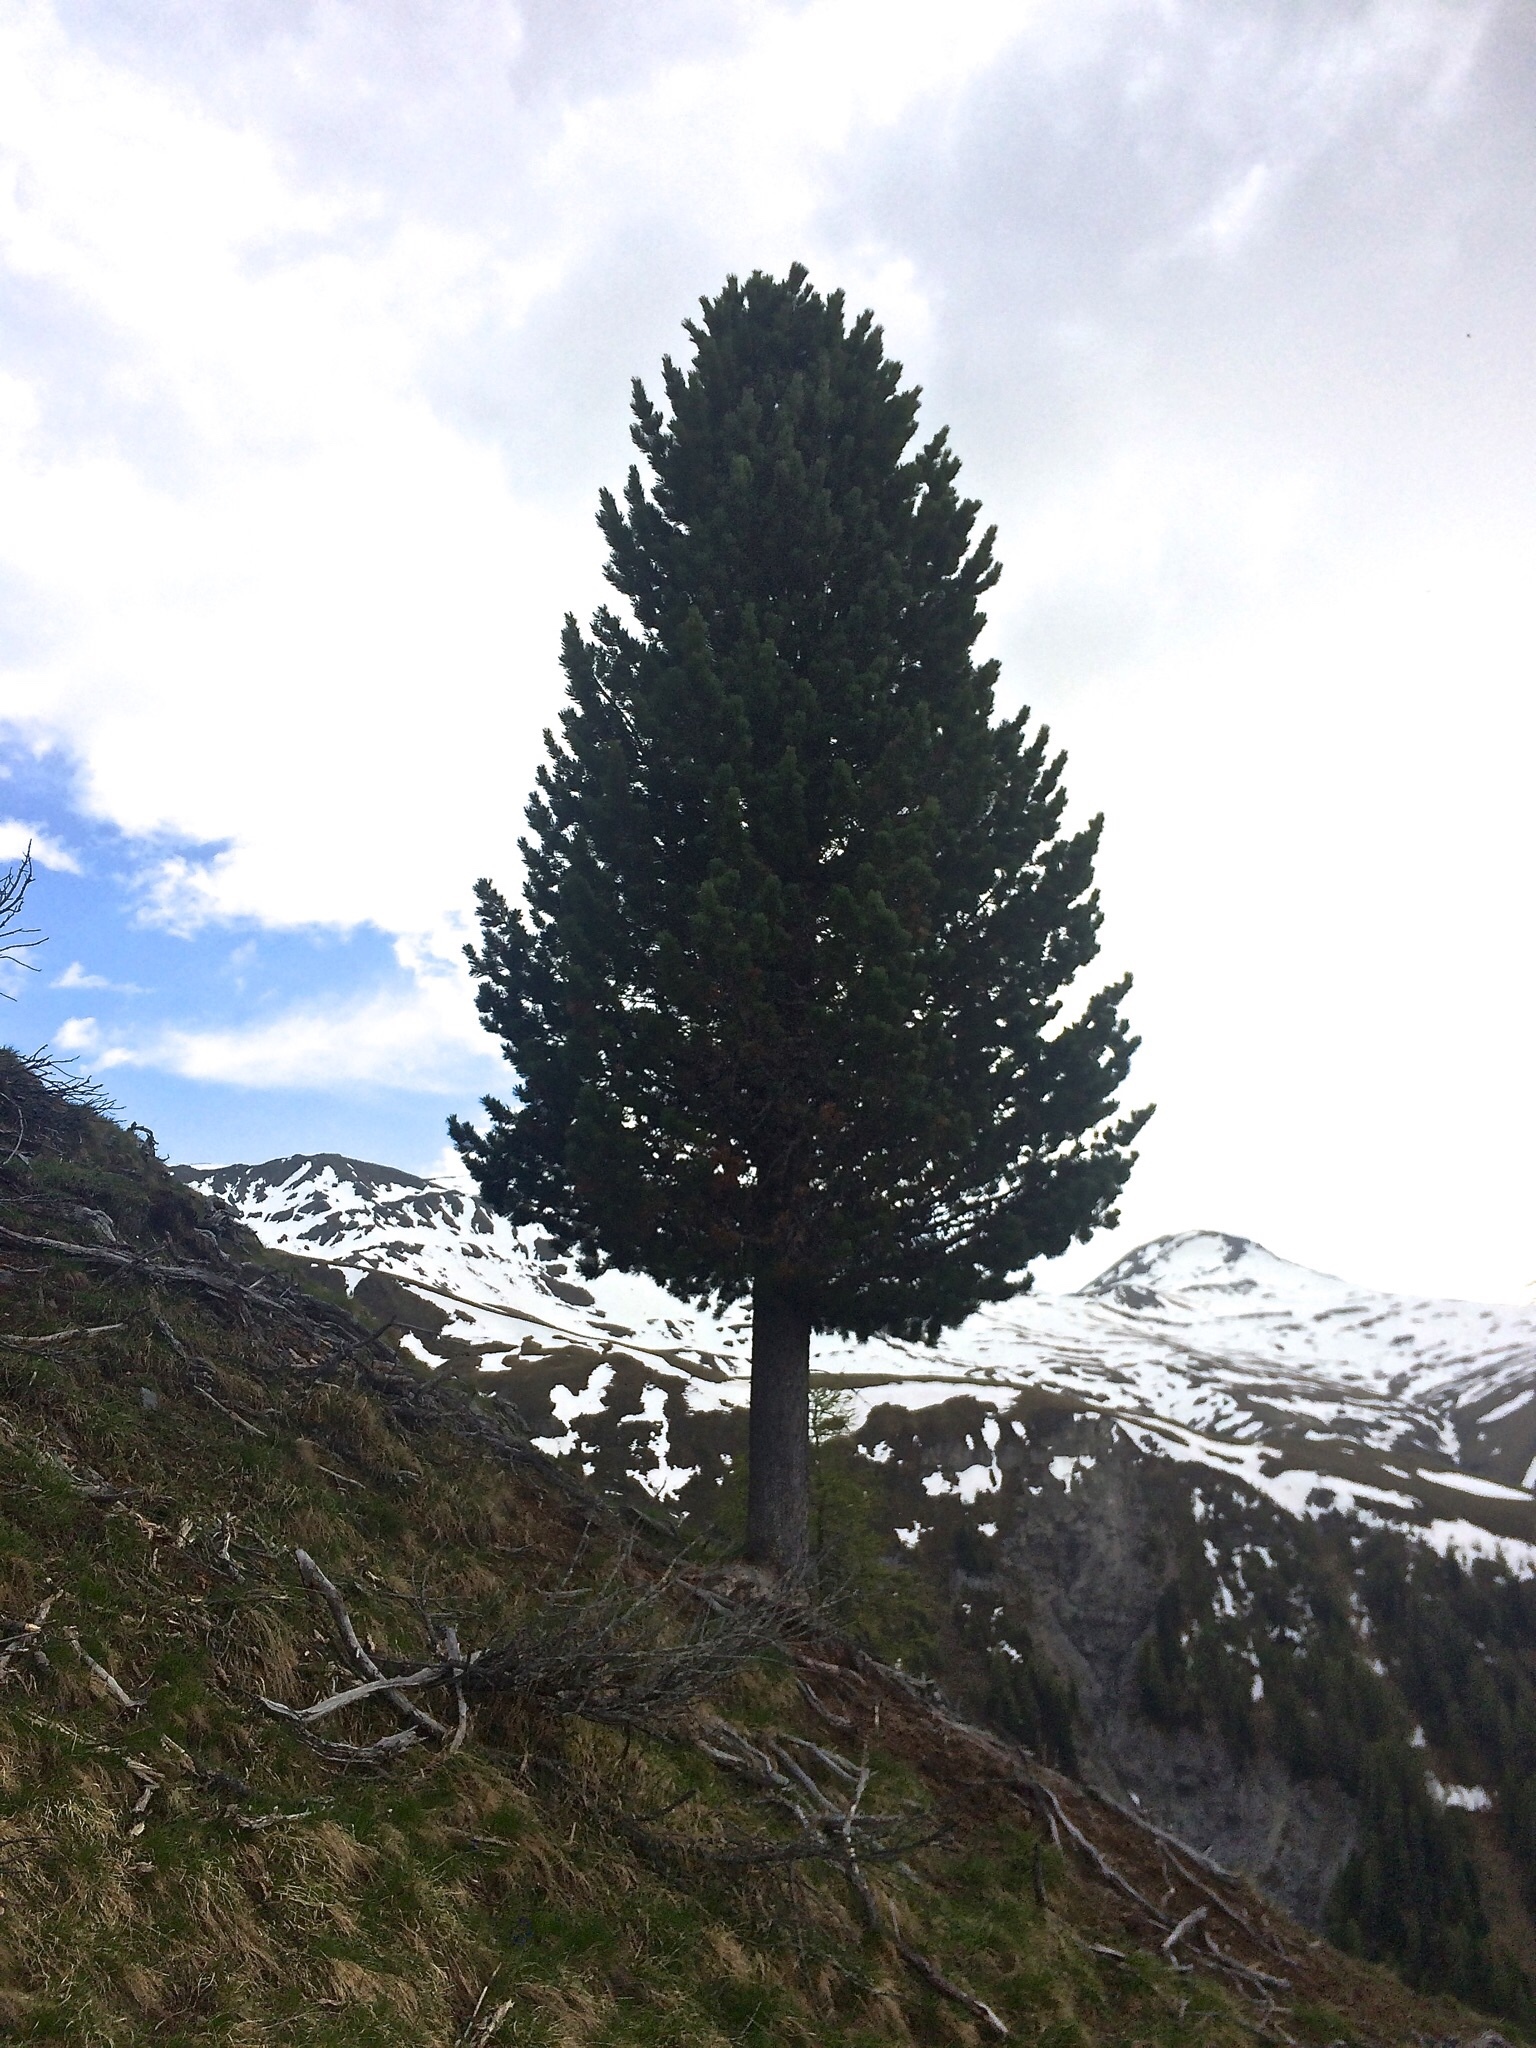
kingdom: Plantae
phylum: Tracheophyta
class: Pinopsida
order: Pinales
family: Pinaceae
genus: Pinus
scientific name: Pinus cembra
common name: Arolla pine
